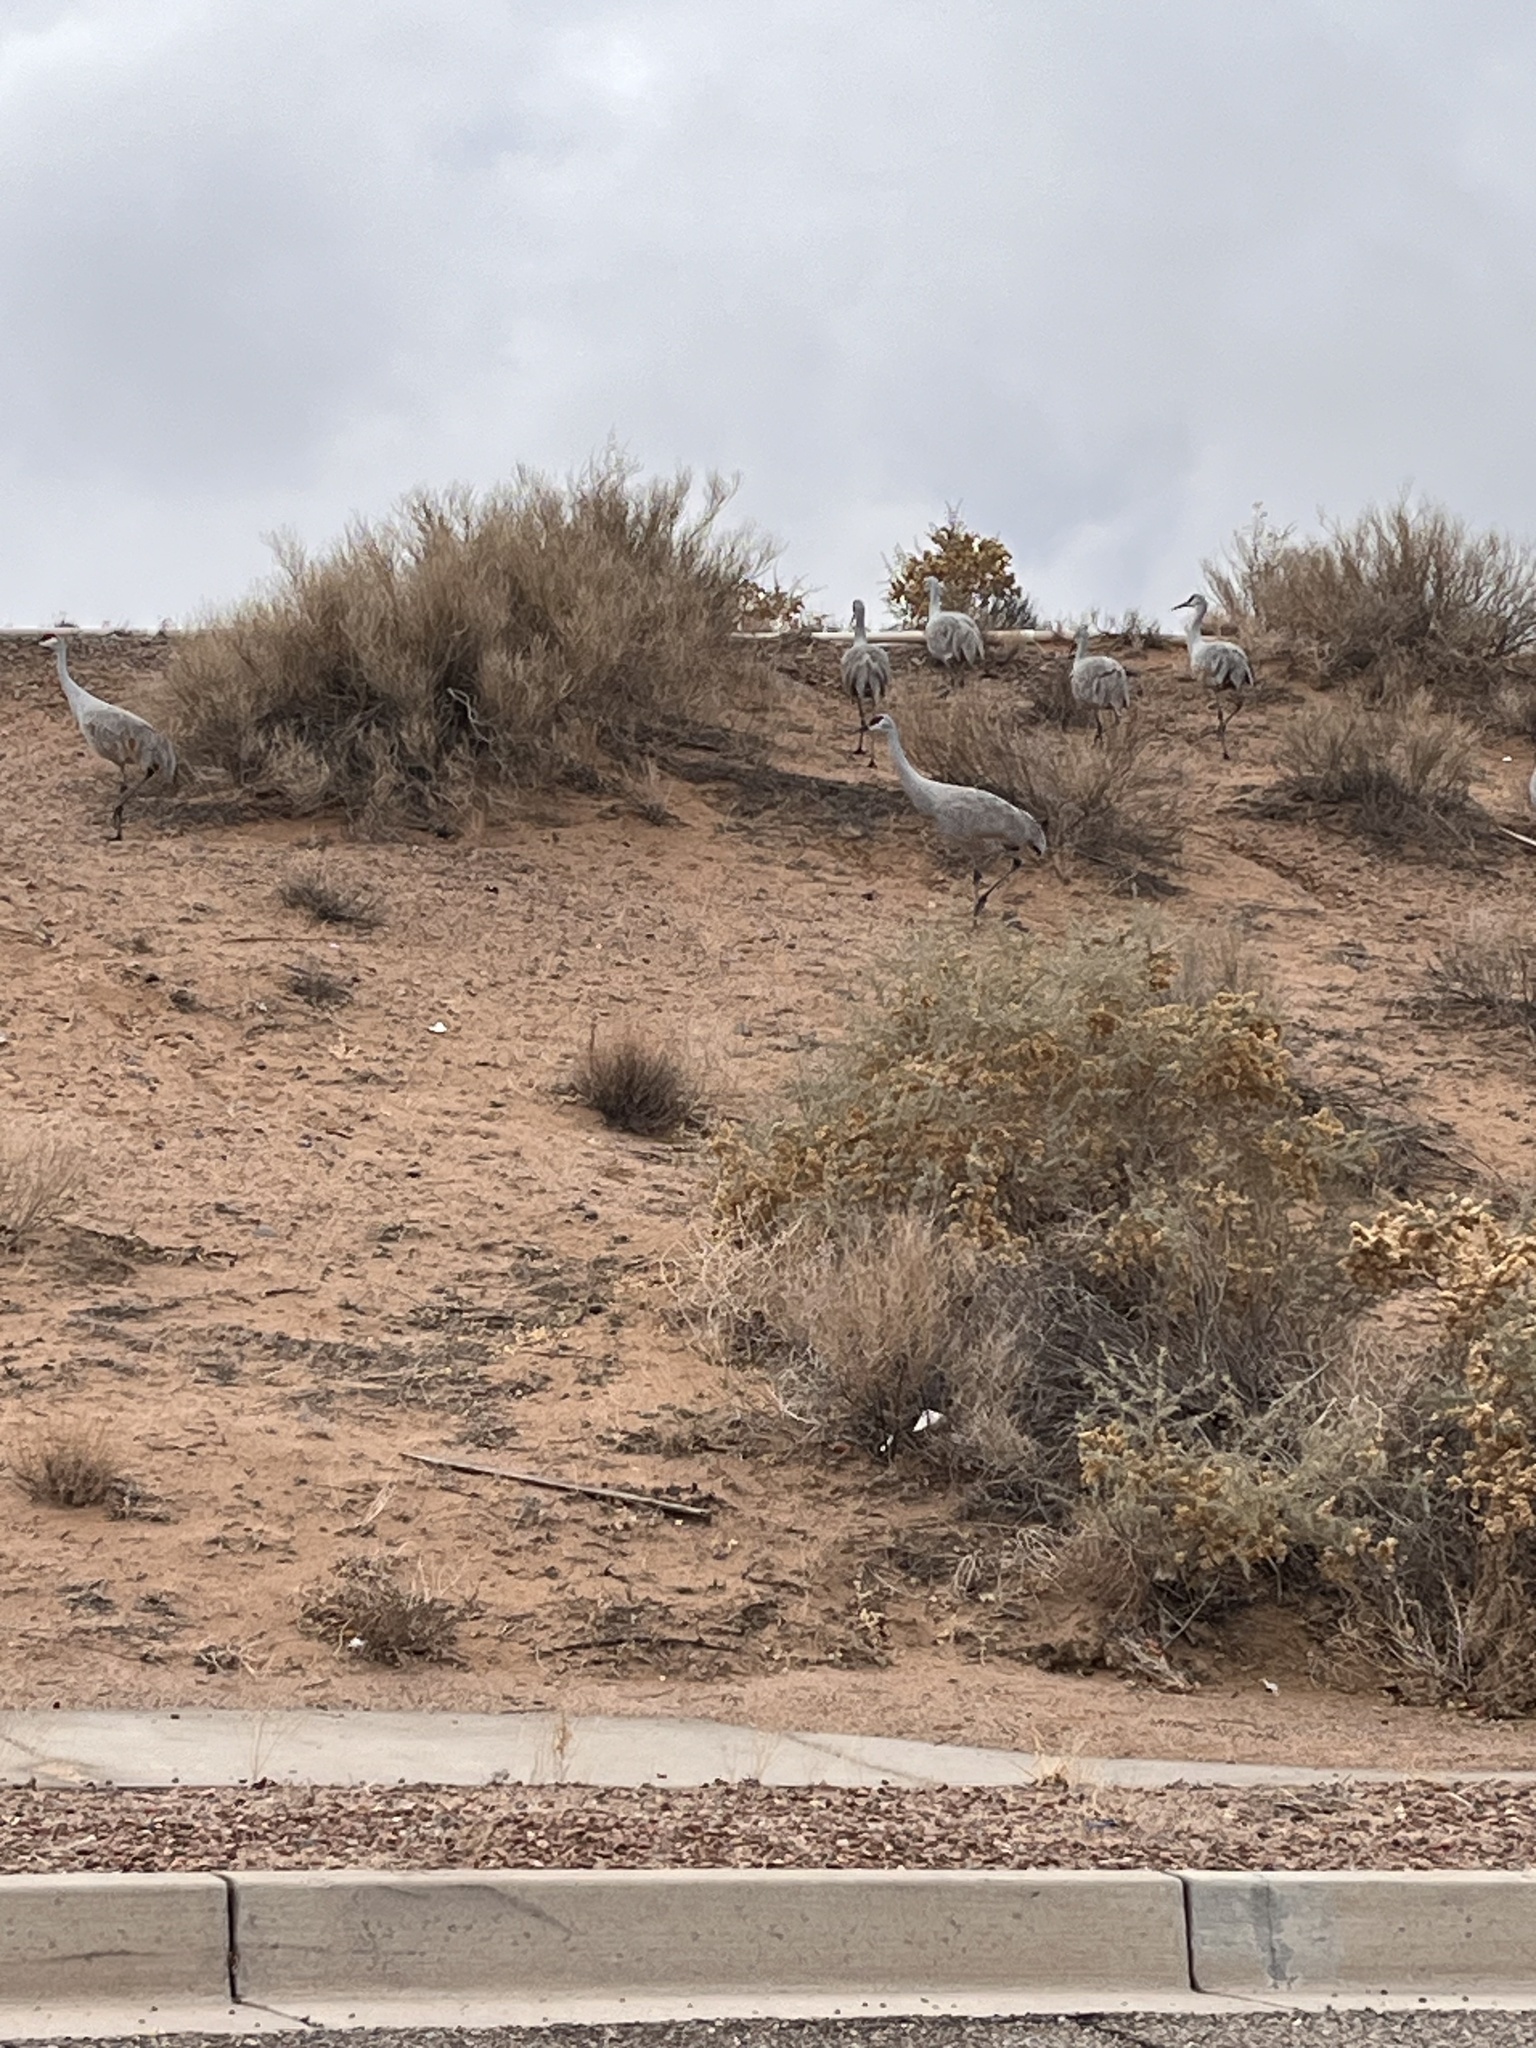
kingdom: Animalia
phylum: Chordata
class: Aves
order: Gruiformes
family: Gruidae
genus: Grus
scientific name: Grus canadensis
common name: Sandhill crane
